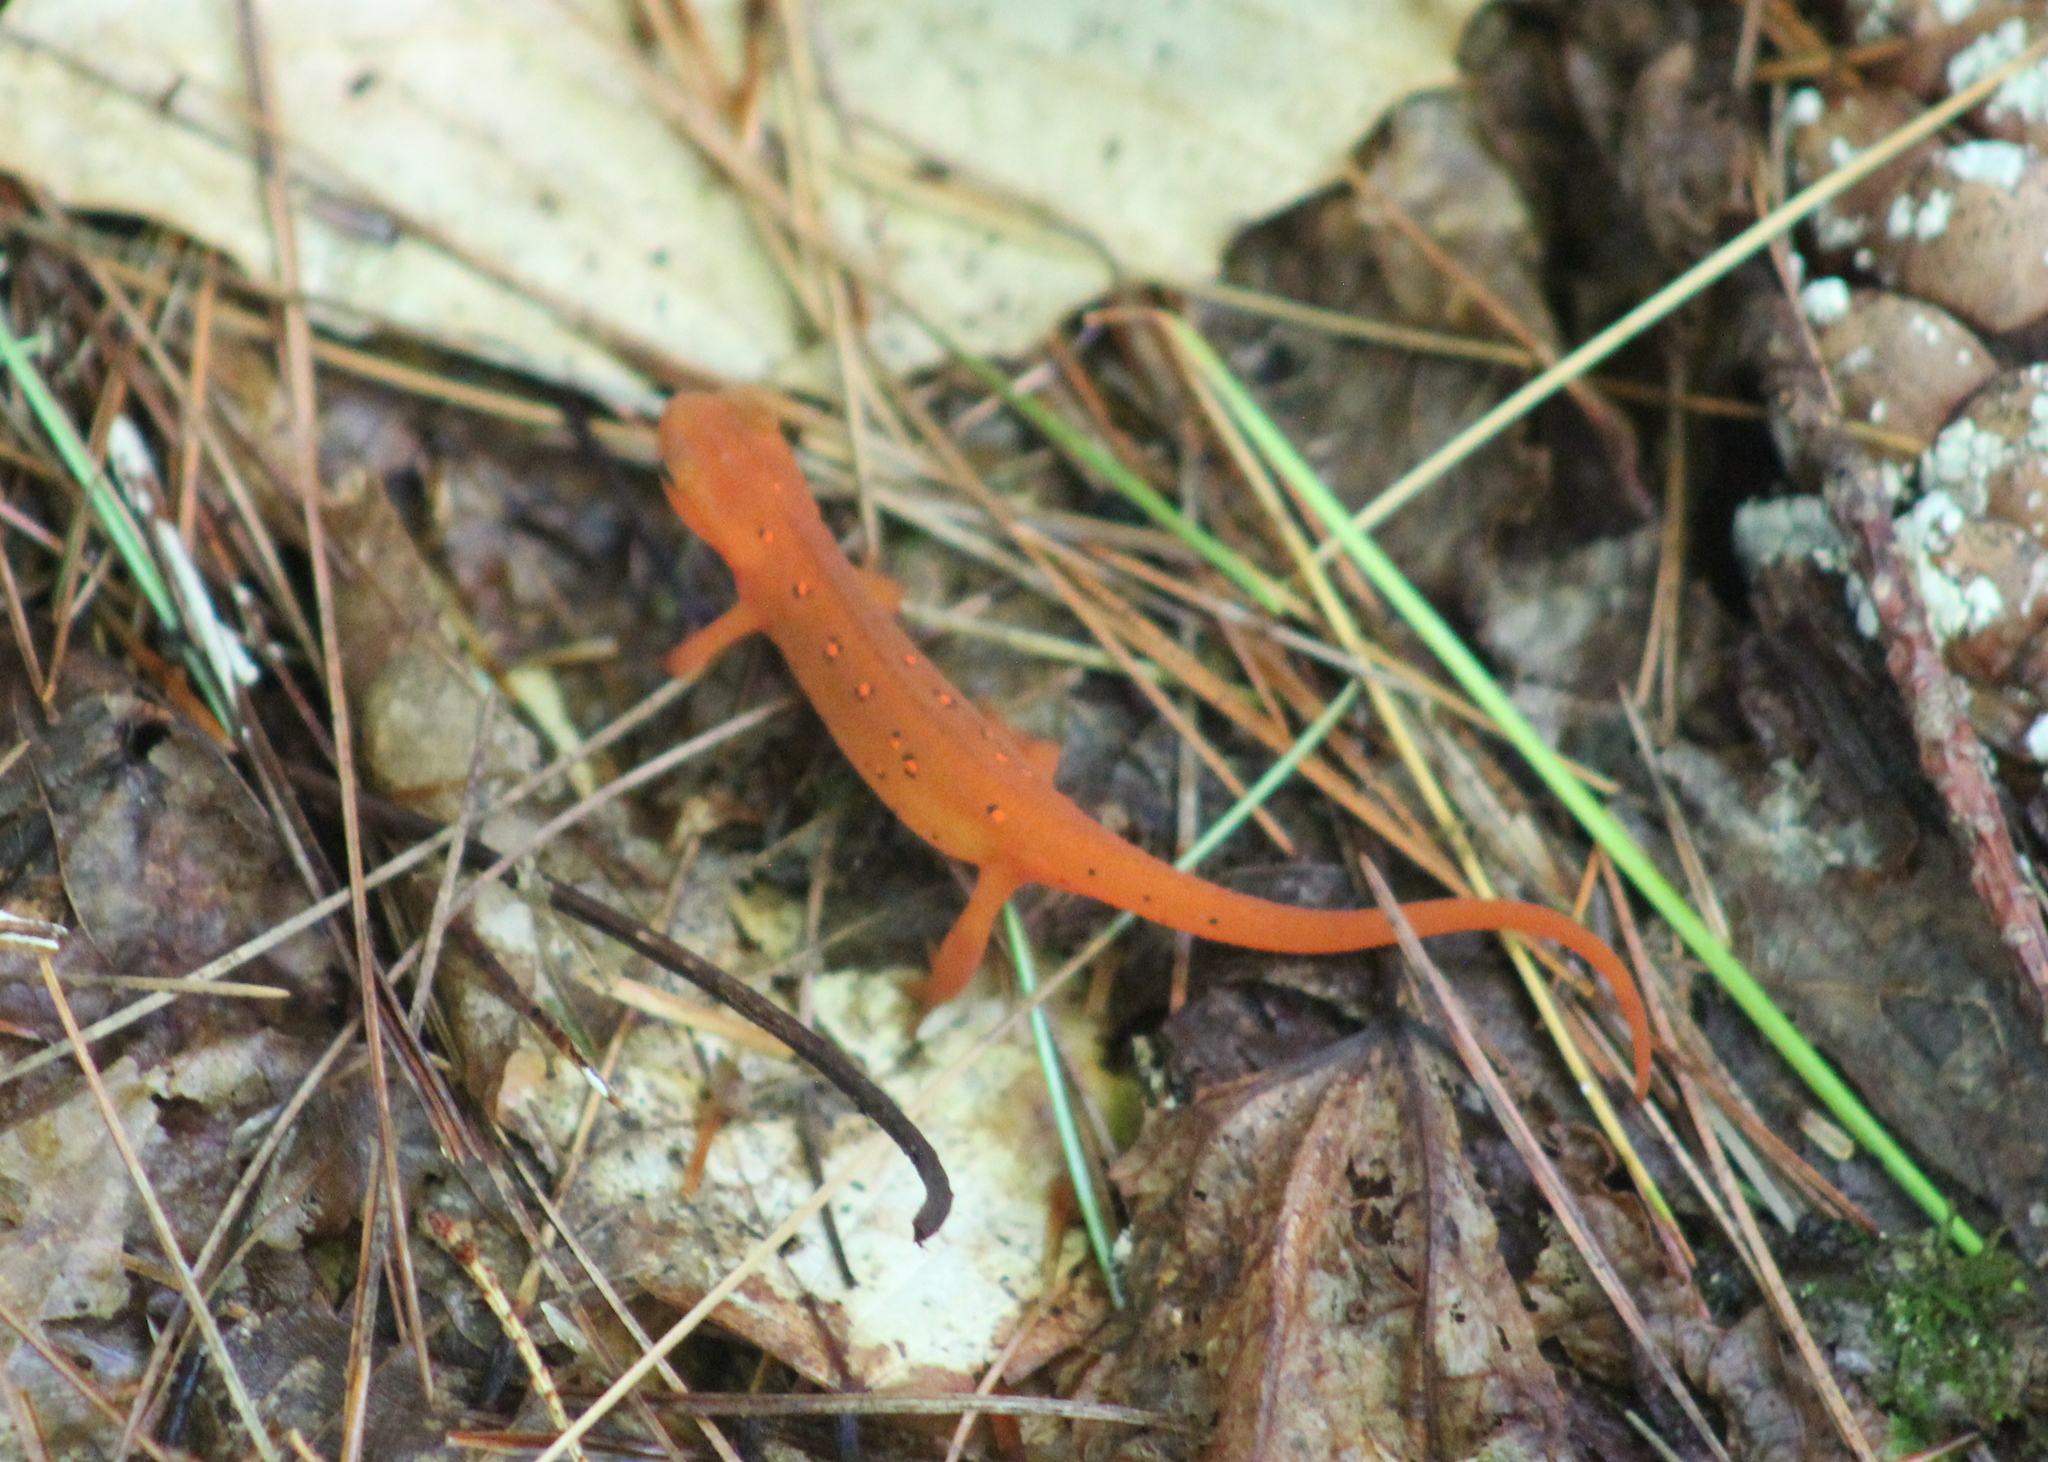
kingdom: Animalia
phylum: Chordata
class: Amphibia
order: Caudata
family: Salamandridae
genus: Notophthalmus
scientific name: Notophthalmus viridescens
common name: Eastern newt
